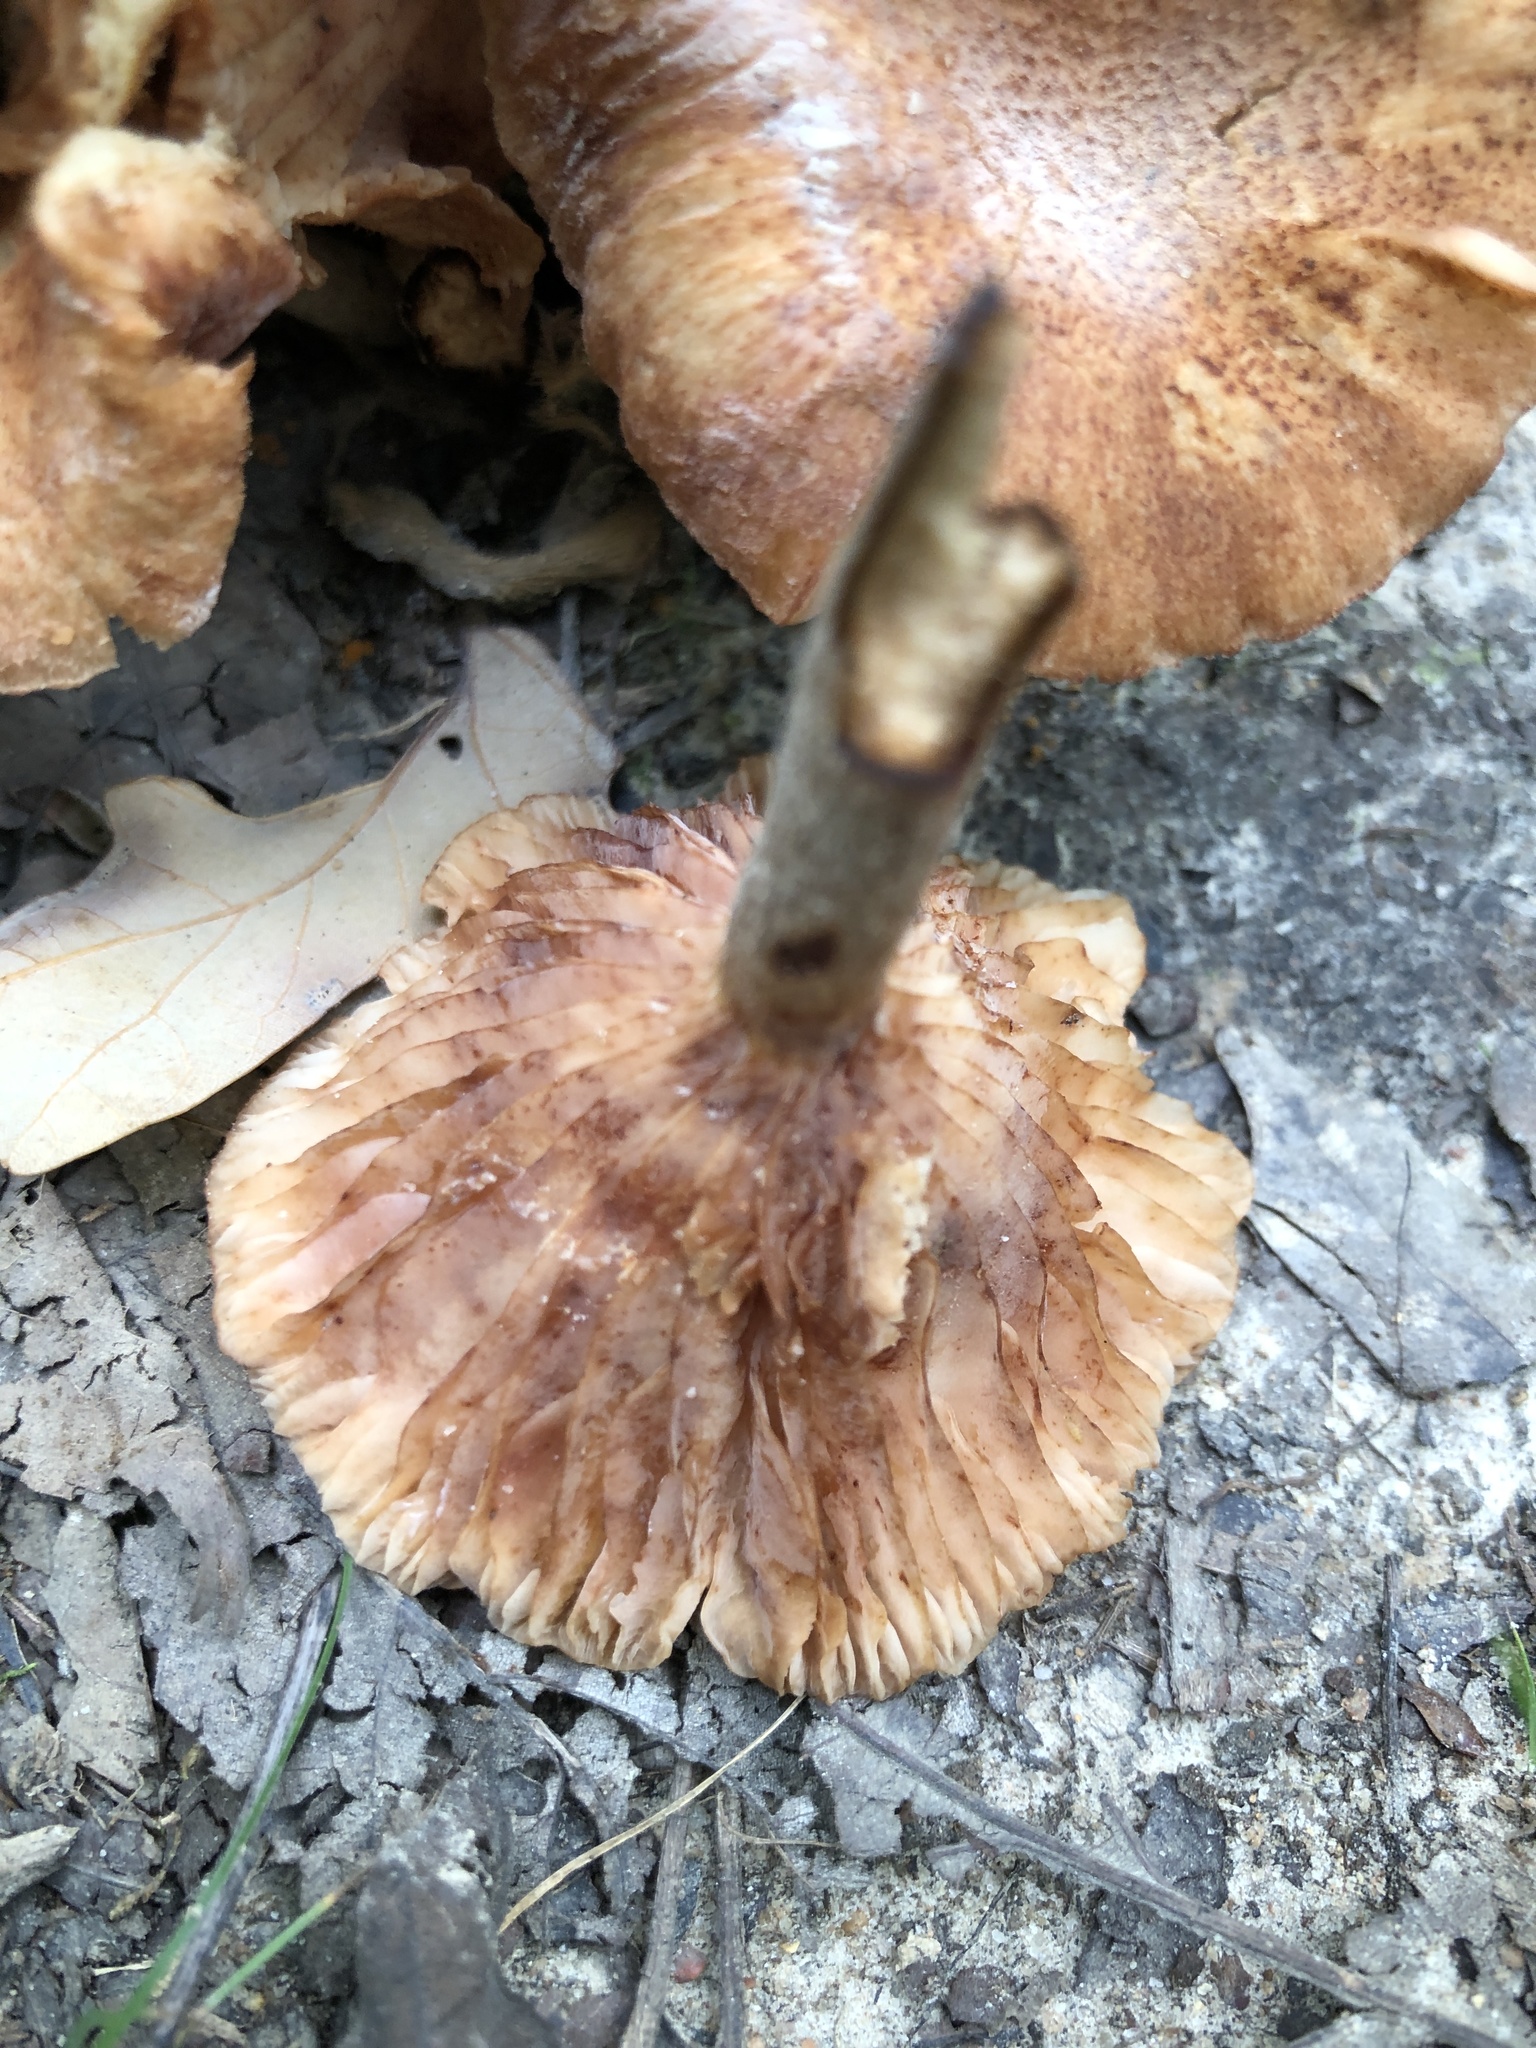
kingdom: Fungi
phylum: Basidiomycota
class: Agaricomycetes
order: Agaricales
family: Physalacriaceae
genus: Desarmillaria
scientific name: Desarmillaria caespitosa
